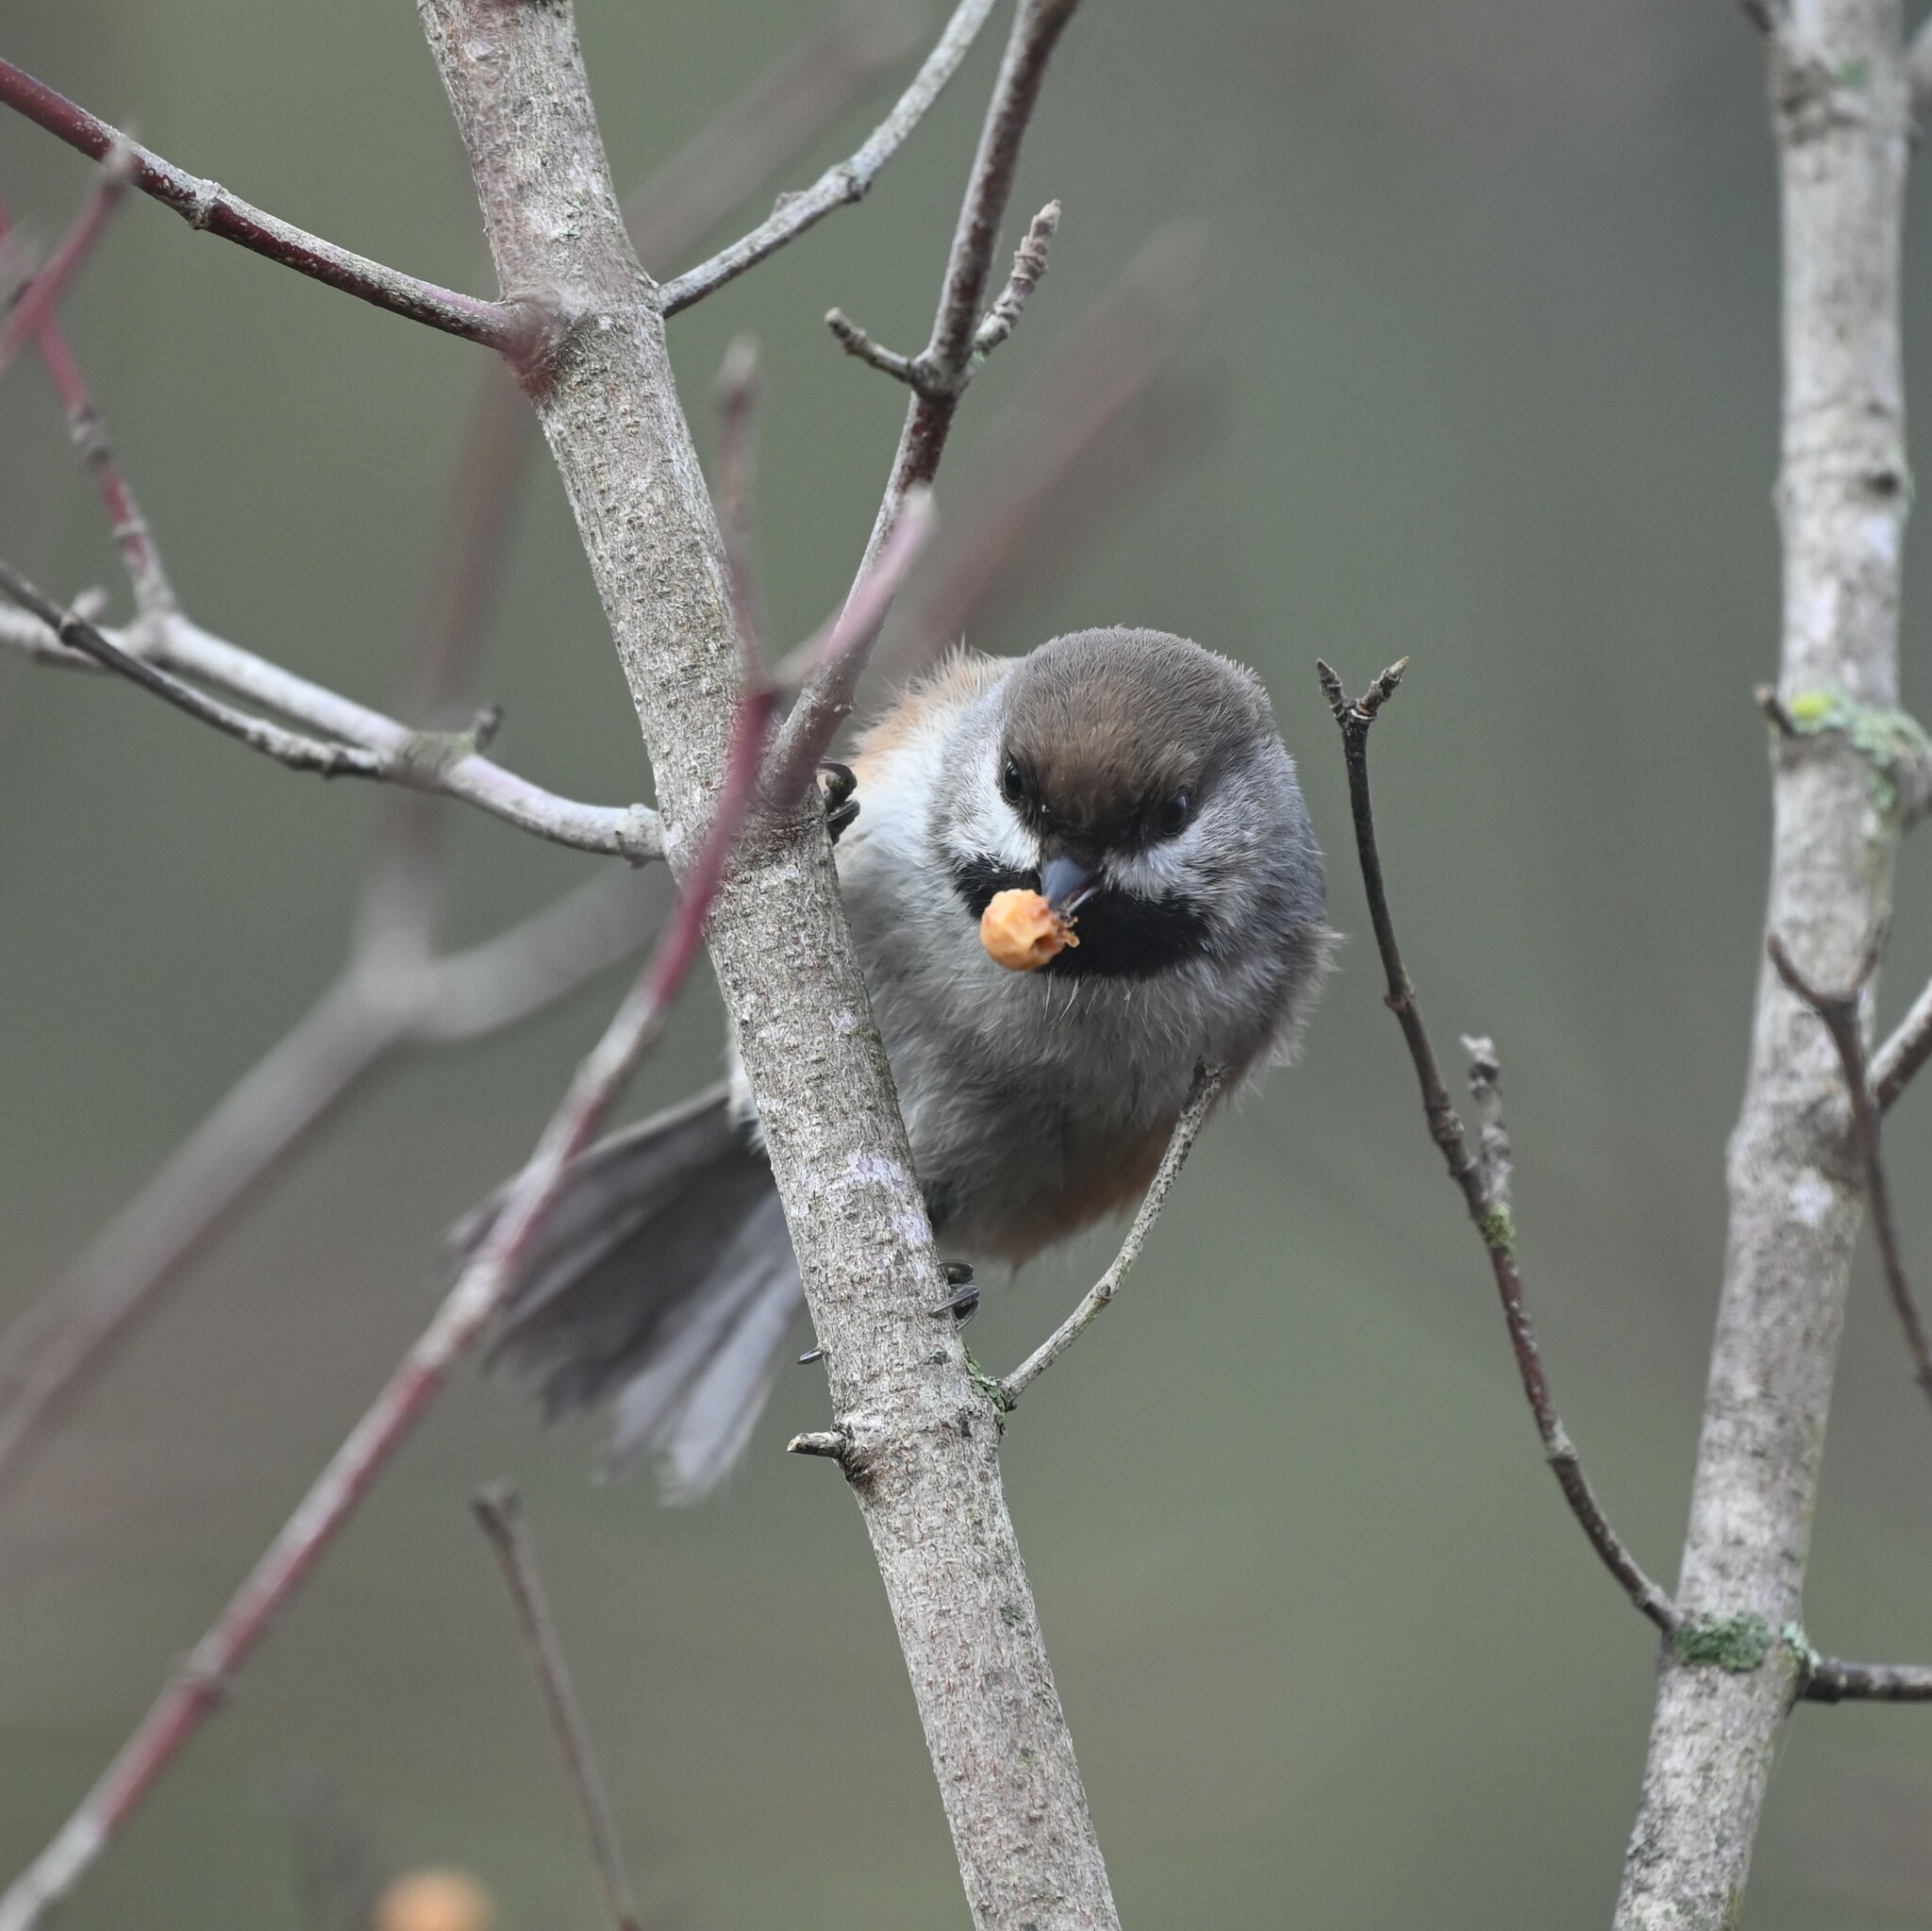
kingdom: Animalia
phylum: Chordata
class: Aves
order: Passeriformes
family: Paridae
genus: Poecile
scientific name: Poecile hudsonicus
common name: Boreal chickadee
